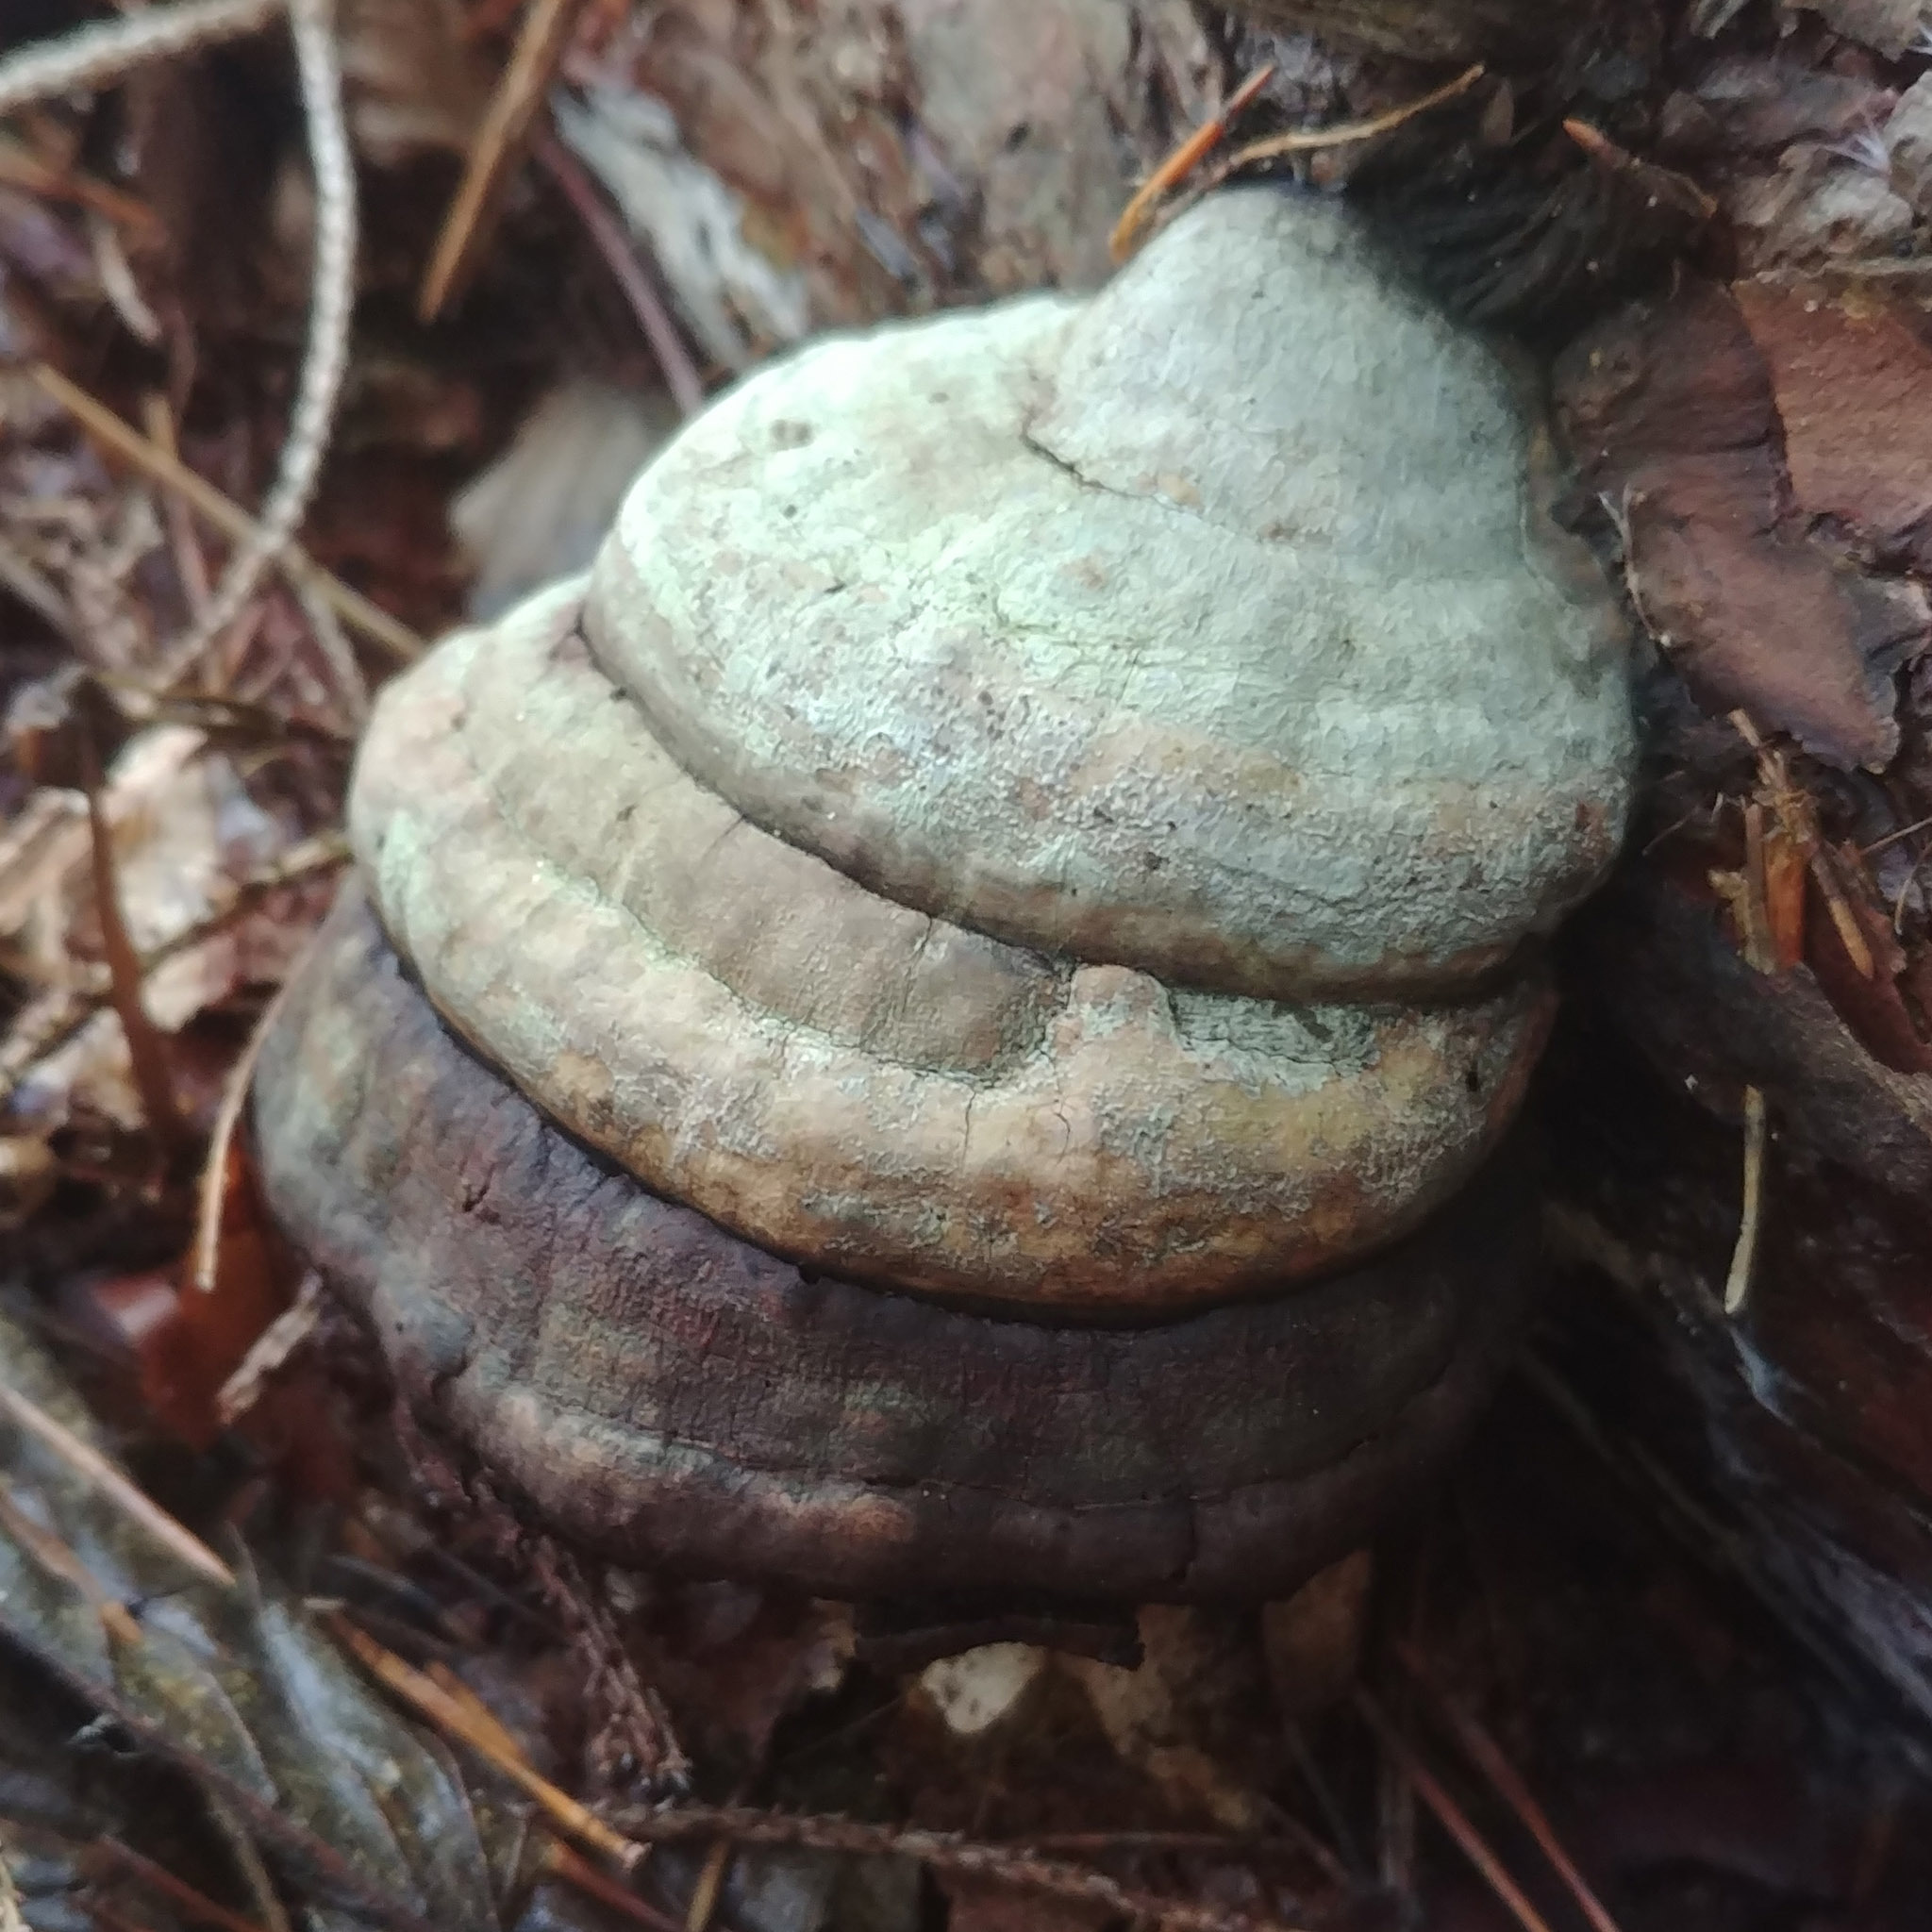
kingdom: Fungi
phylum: Basidiomycota
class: Agaricomycetes
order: Polyporales
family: Fomitopsidaceae
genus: Fomitopsis
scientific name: Fomitopsis pinicola
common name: Red-belted bracket
